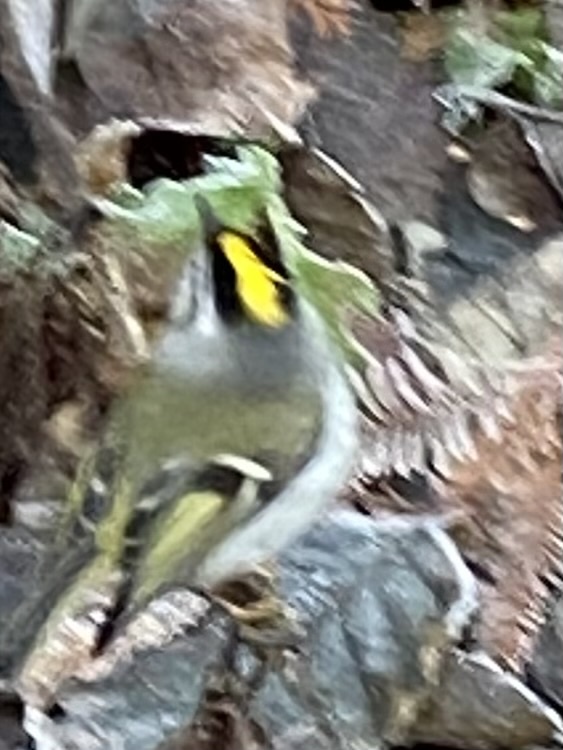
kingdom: Animalia
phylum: Chordata
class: Aves
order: Passeriformes
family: Regulidae
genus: Regulus
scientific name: Regulus satrapa
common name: Golden-crowned kinglet
